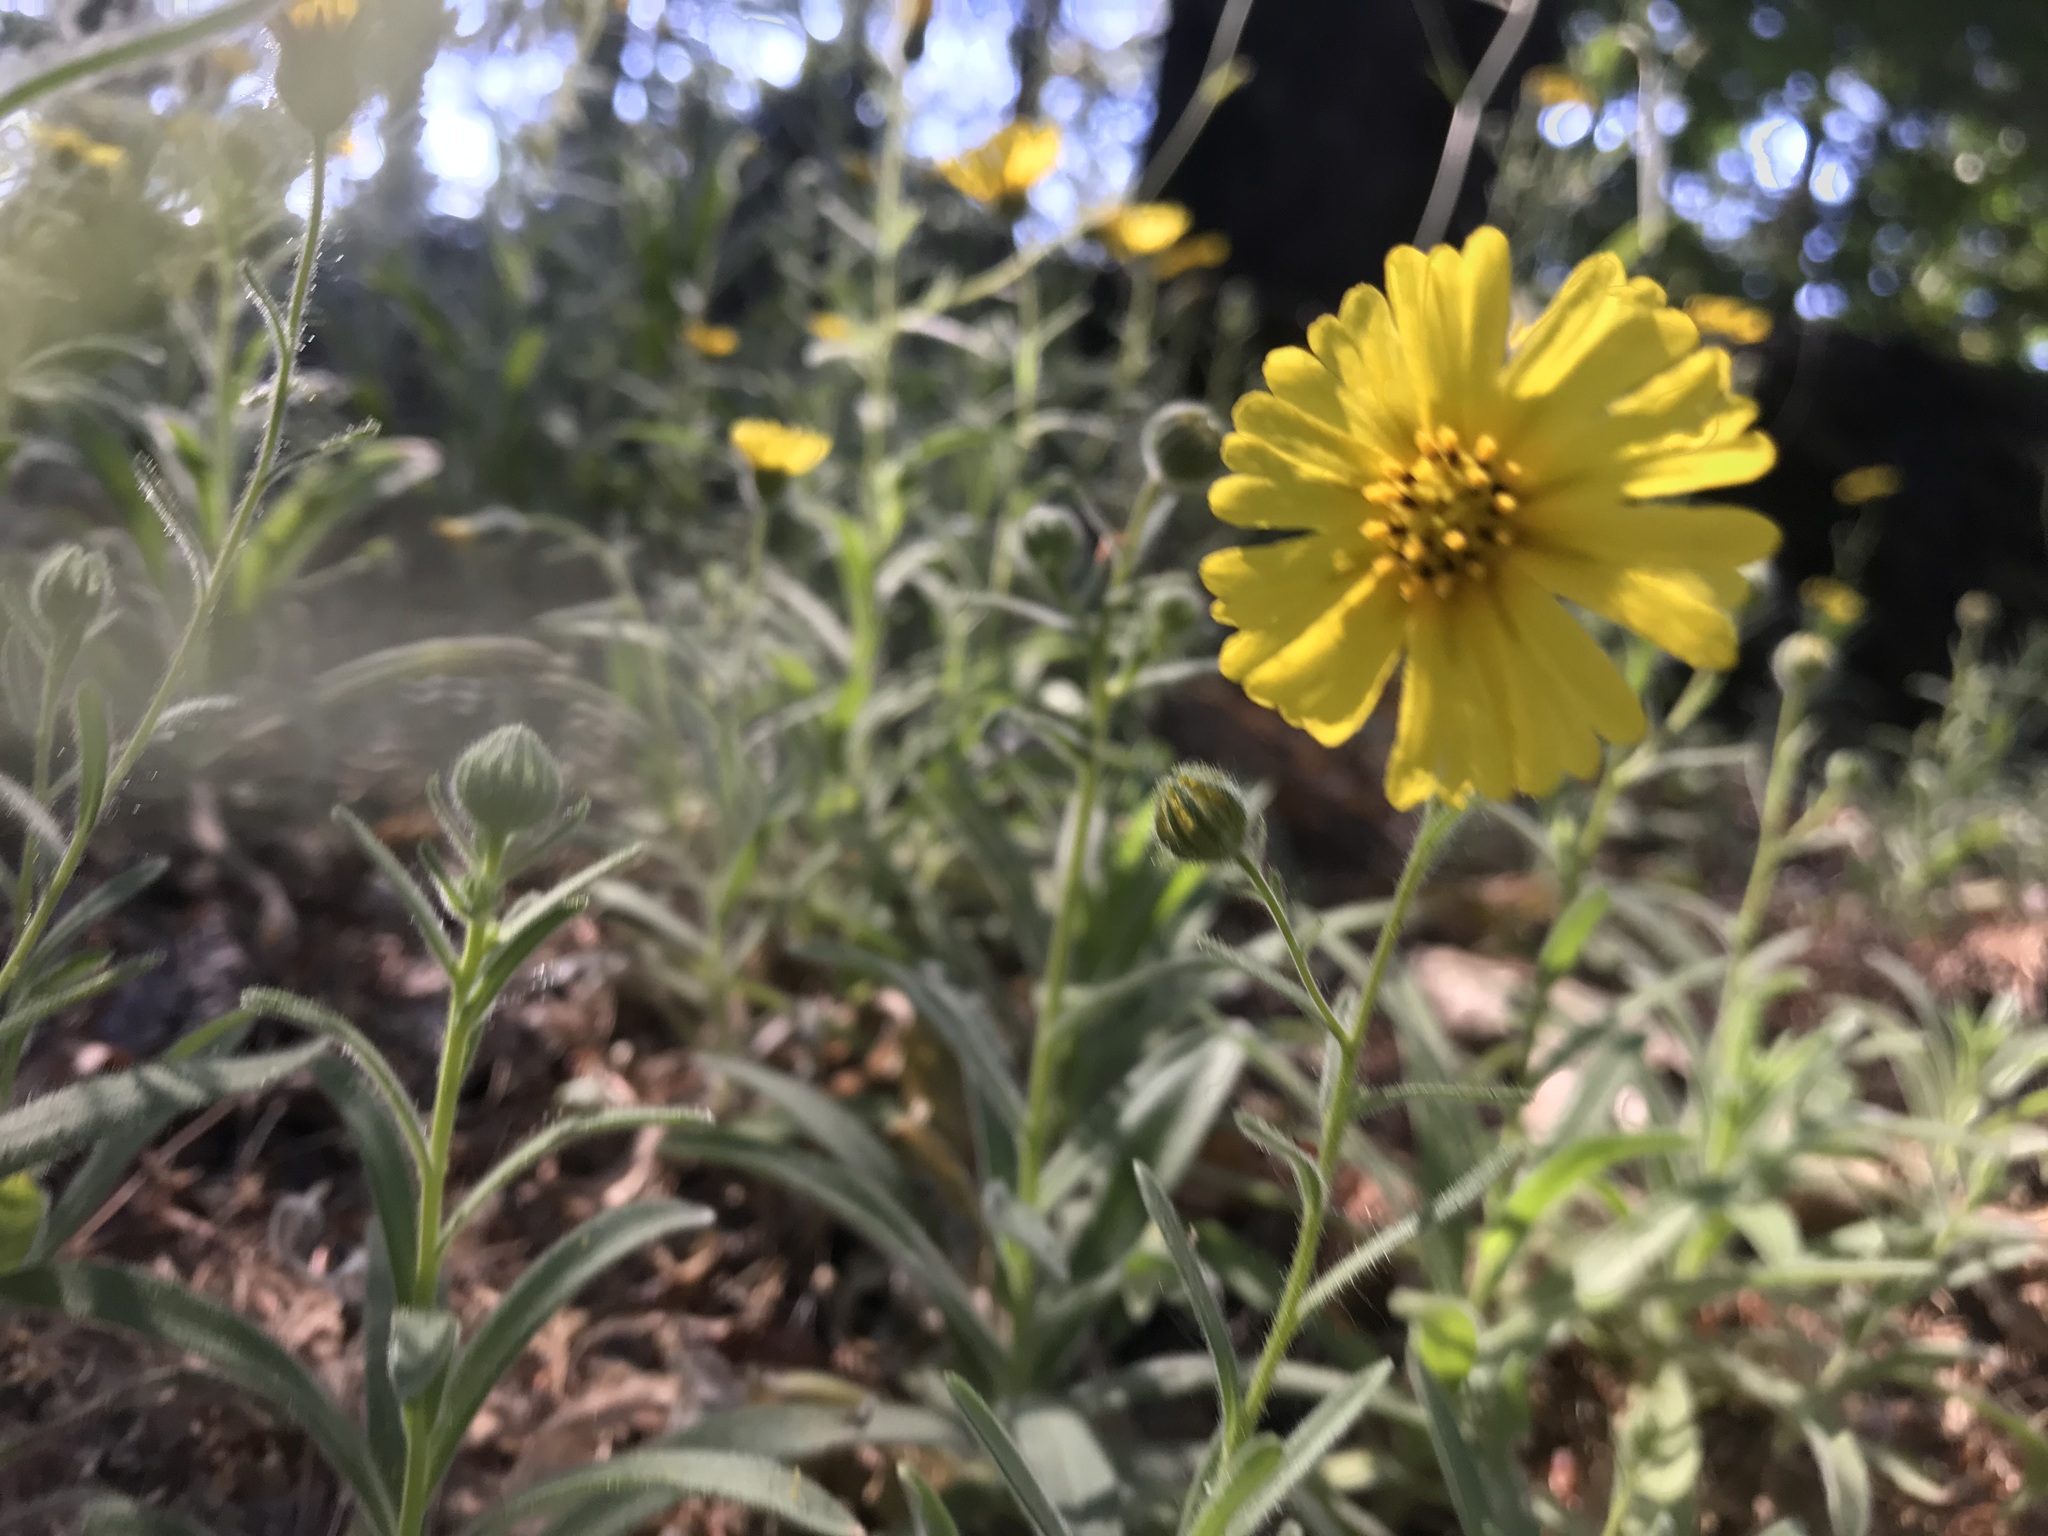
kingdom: Plantae
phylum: Tracheophyta
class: Magnoliopsida
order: Asterales
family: Asteraceae
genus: Anisocarpus
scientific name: Anisocarpus madioides
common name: Woodland madia
